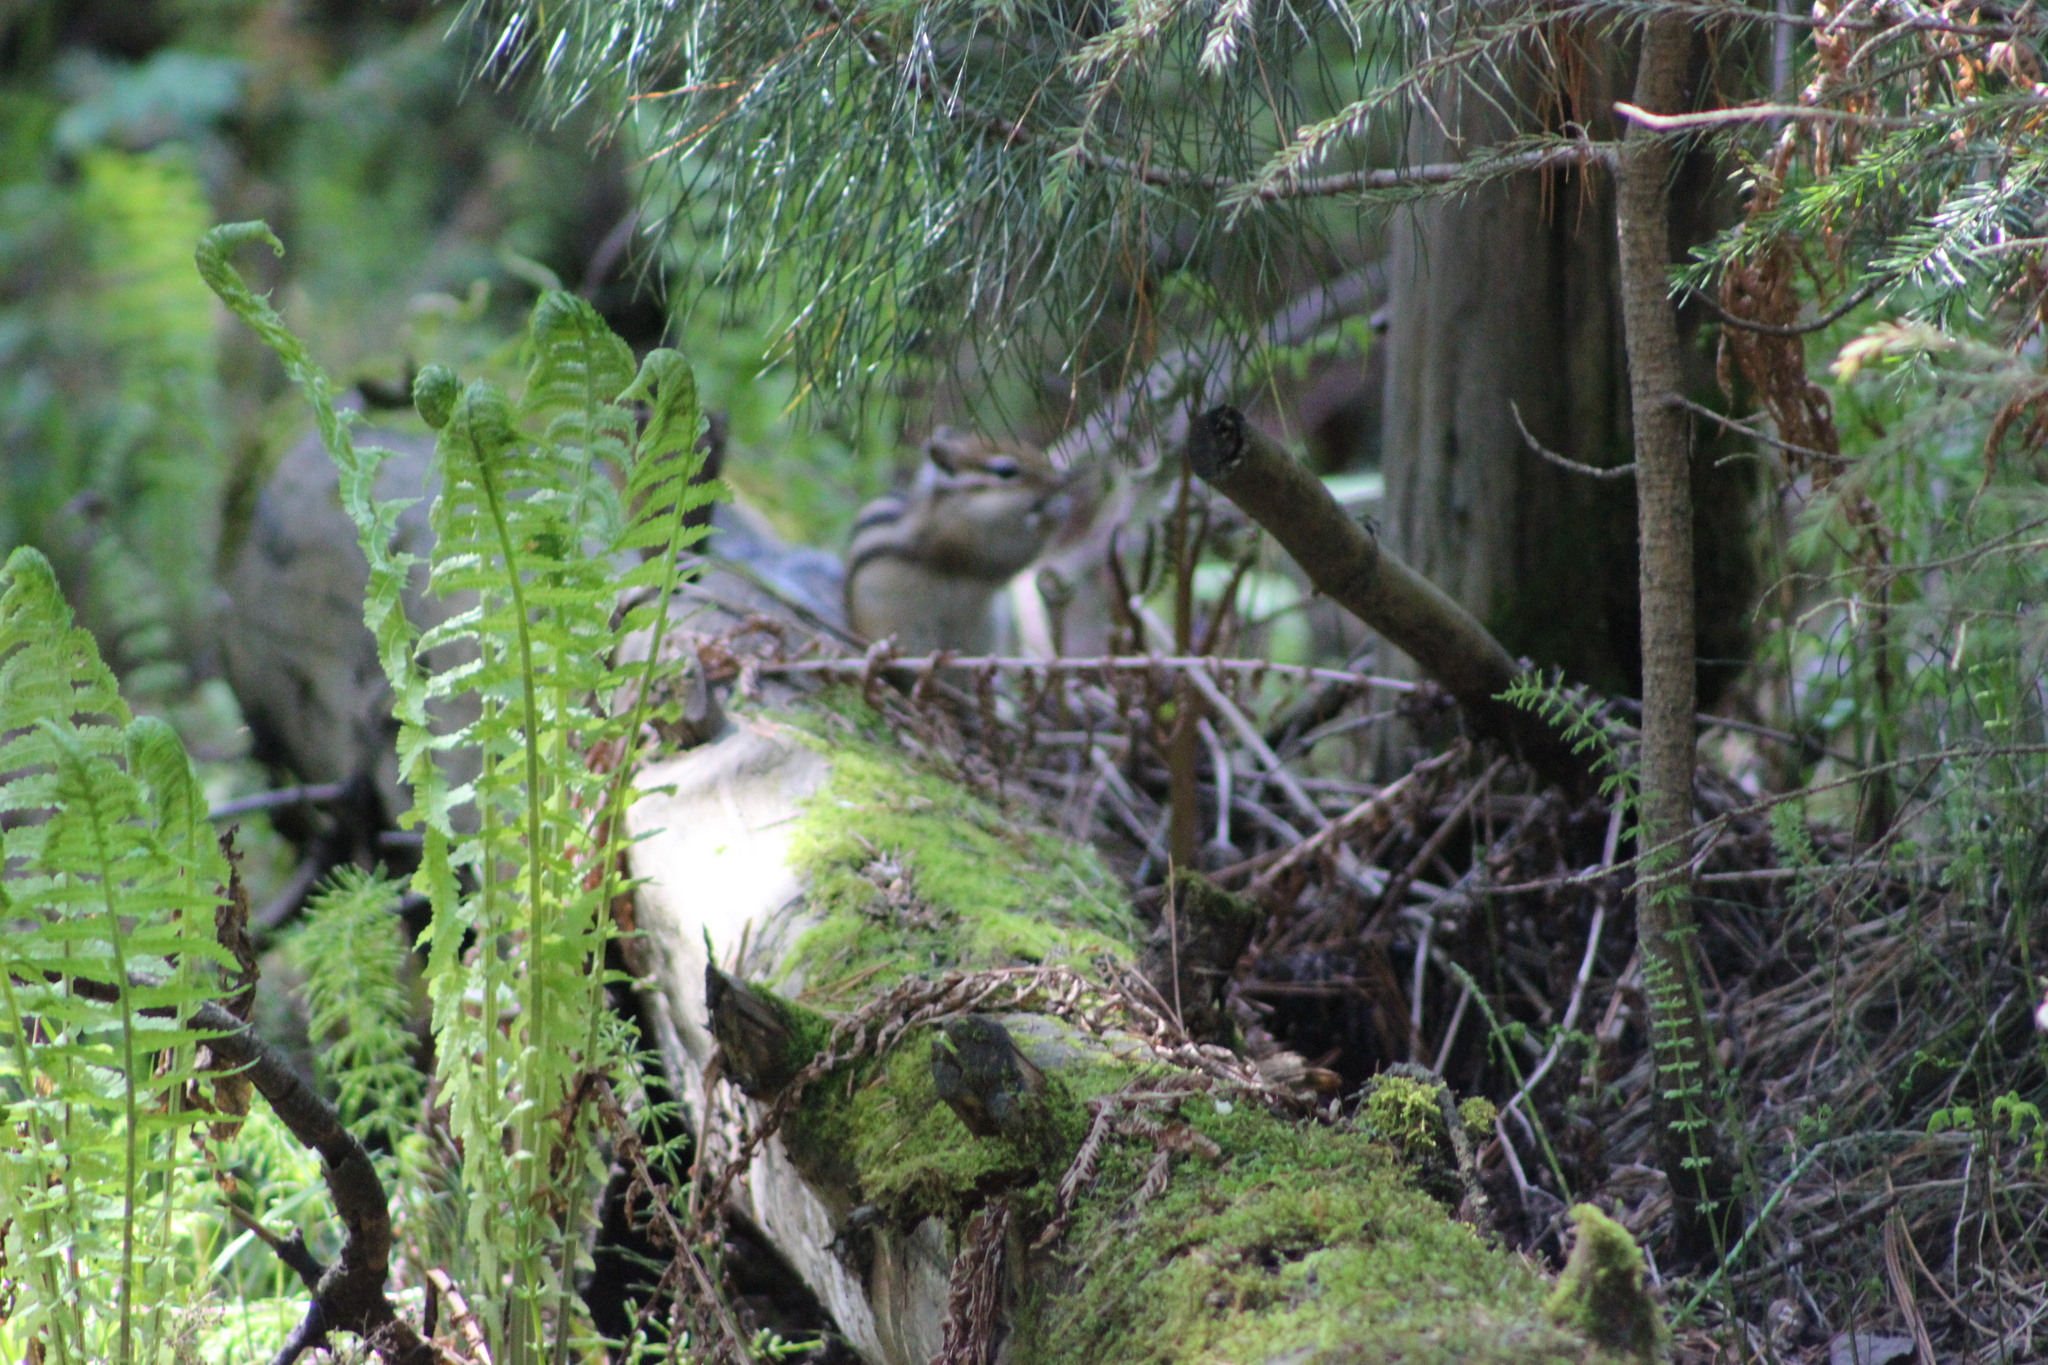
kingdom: Animalia
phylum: Chordata
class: Mammalia
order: Rodentia
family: Sciuridae
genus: Tamias
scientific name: Tamias sibiricus
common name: Siberian chipmunk
